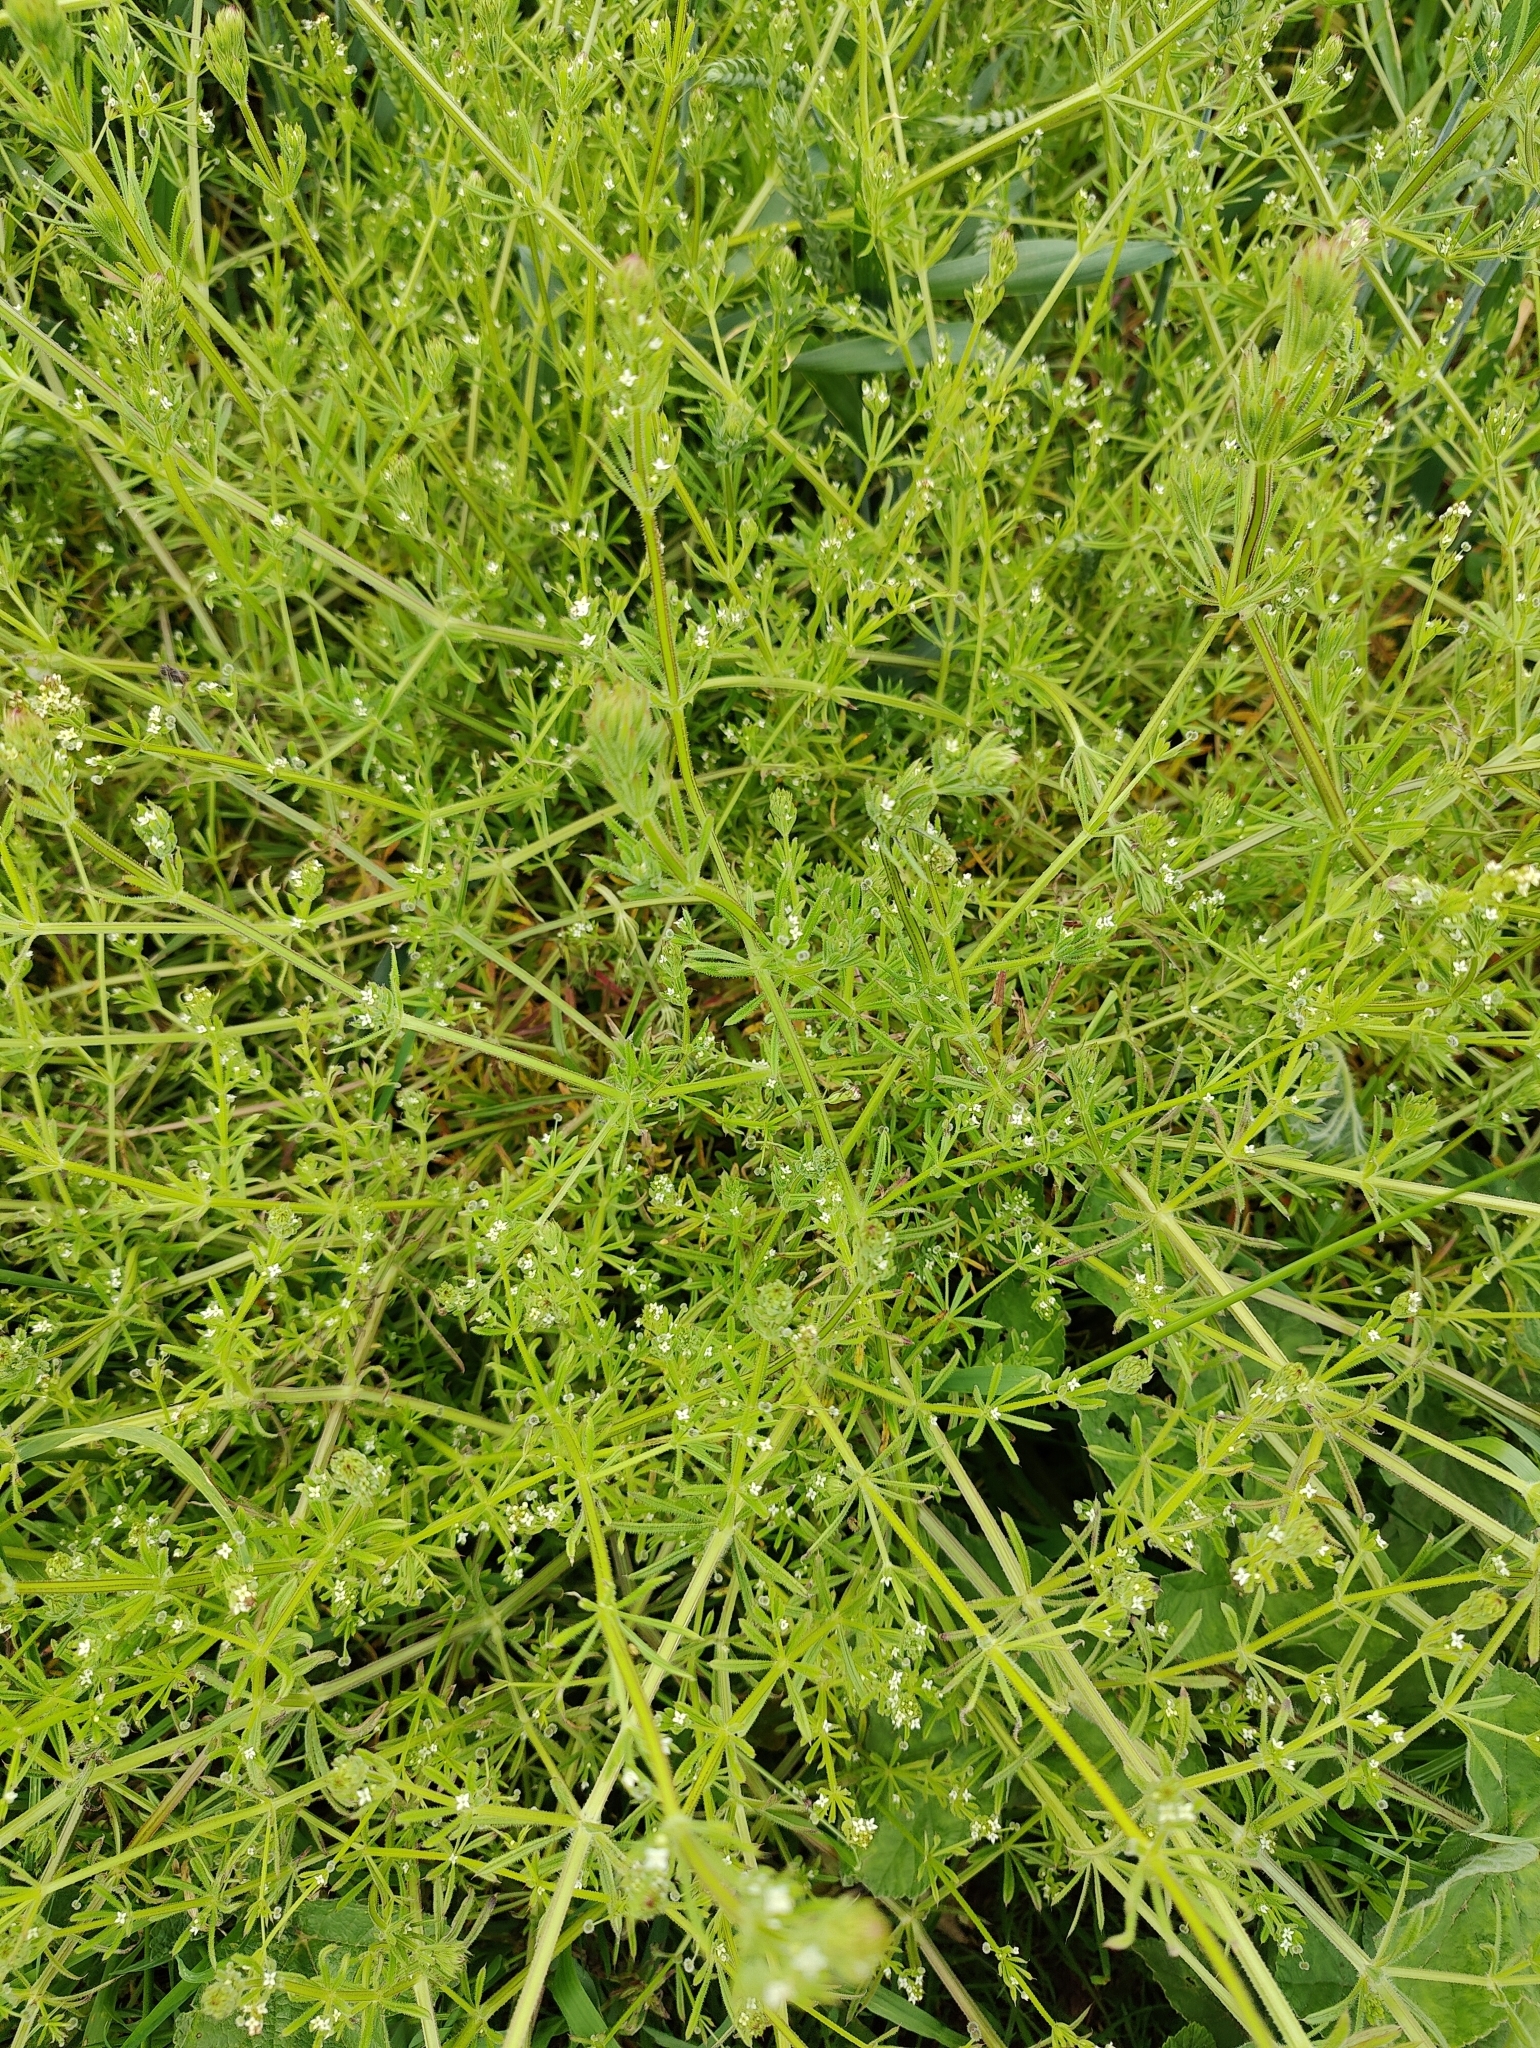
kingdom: Plantae
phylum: Tracheophyta
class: Magnoliopsida
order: Gentianales
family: Rubiaceae
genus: Galium
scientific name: Galium aparine
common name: Cleavers
